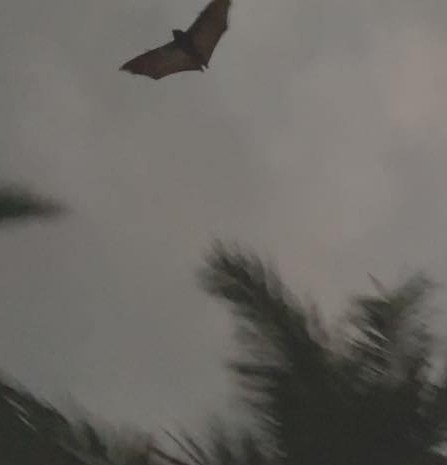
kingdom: Animalia
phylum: Chordata
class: Mammalia
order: Chiroptera
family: Pteropodidae
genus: Pteropus
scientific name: Pteropus niger
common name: Greater mascarene flying fox
